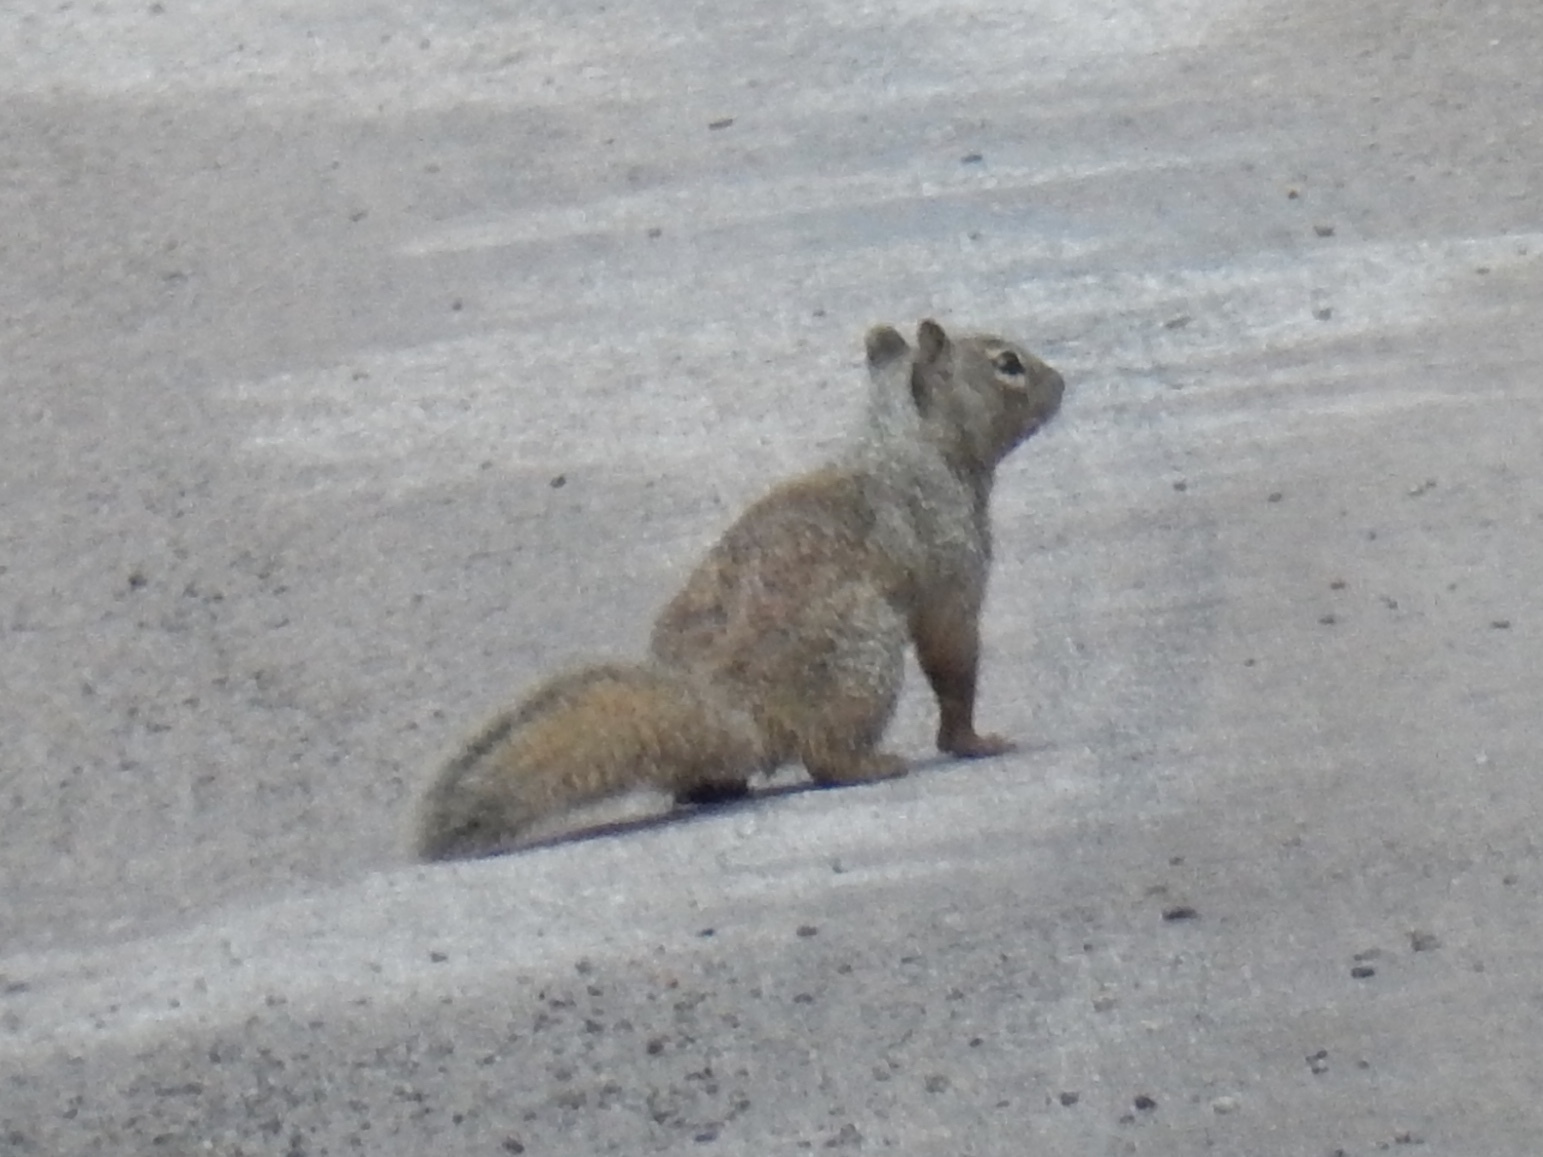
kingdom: Animalia
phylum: Chordata
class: Mammalia
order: Rodentia
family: Sciuridae
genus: Otospermophilus
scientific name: Otospermophilus variegatus
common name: Rock squirrel
